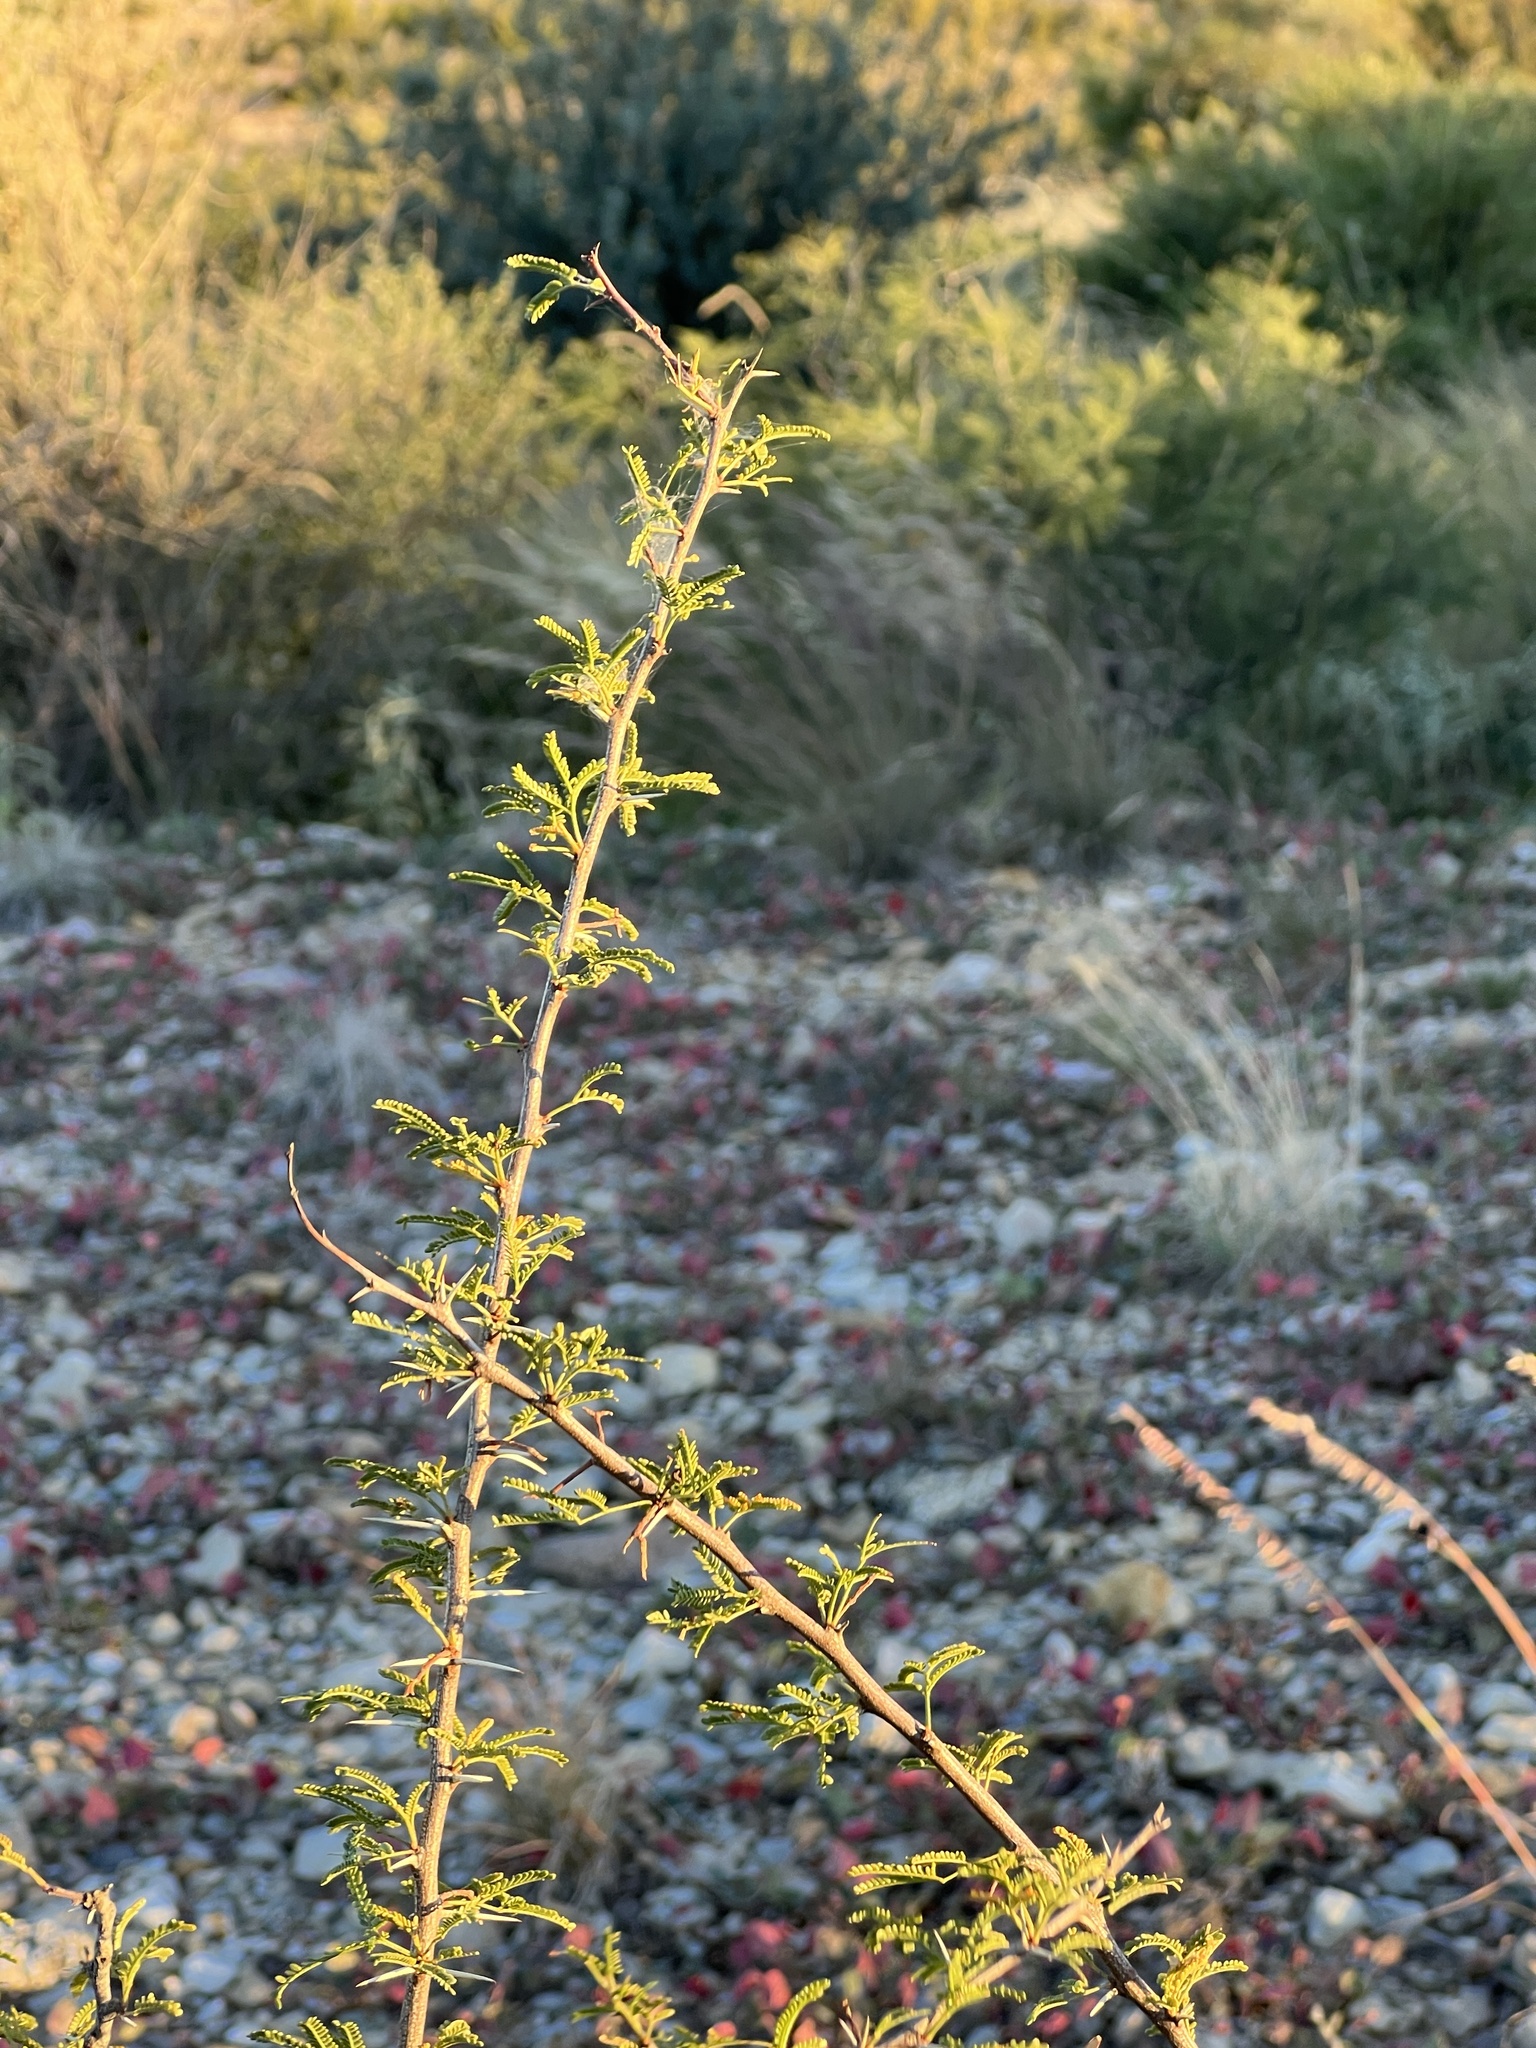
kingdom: Plantae
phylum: Tracheophyta
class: Magnoliopsida
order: Fabales
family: Fabaceae
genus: Vachellia
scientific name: Vachellia vernicosa
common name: Viscid acacia
